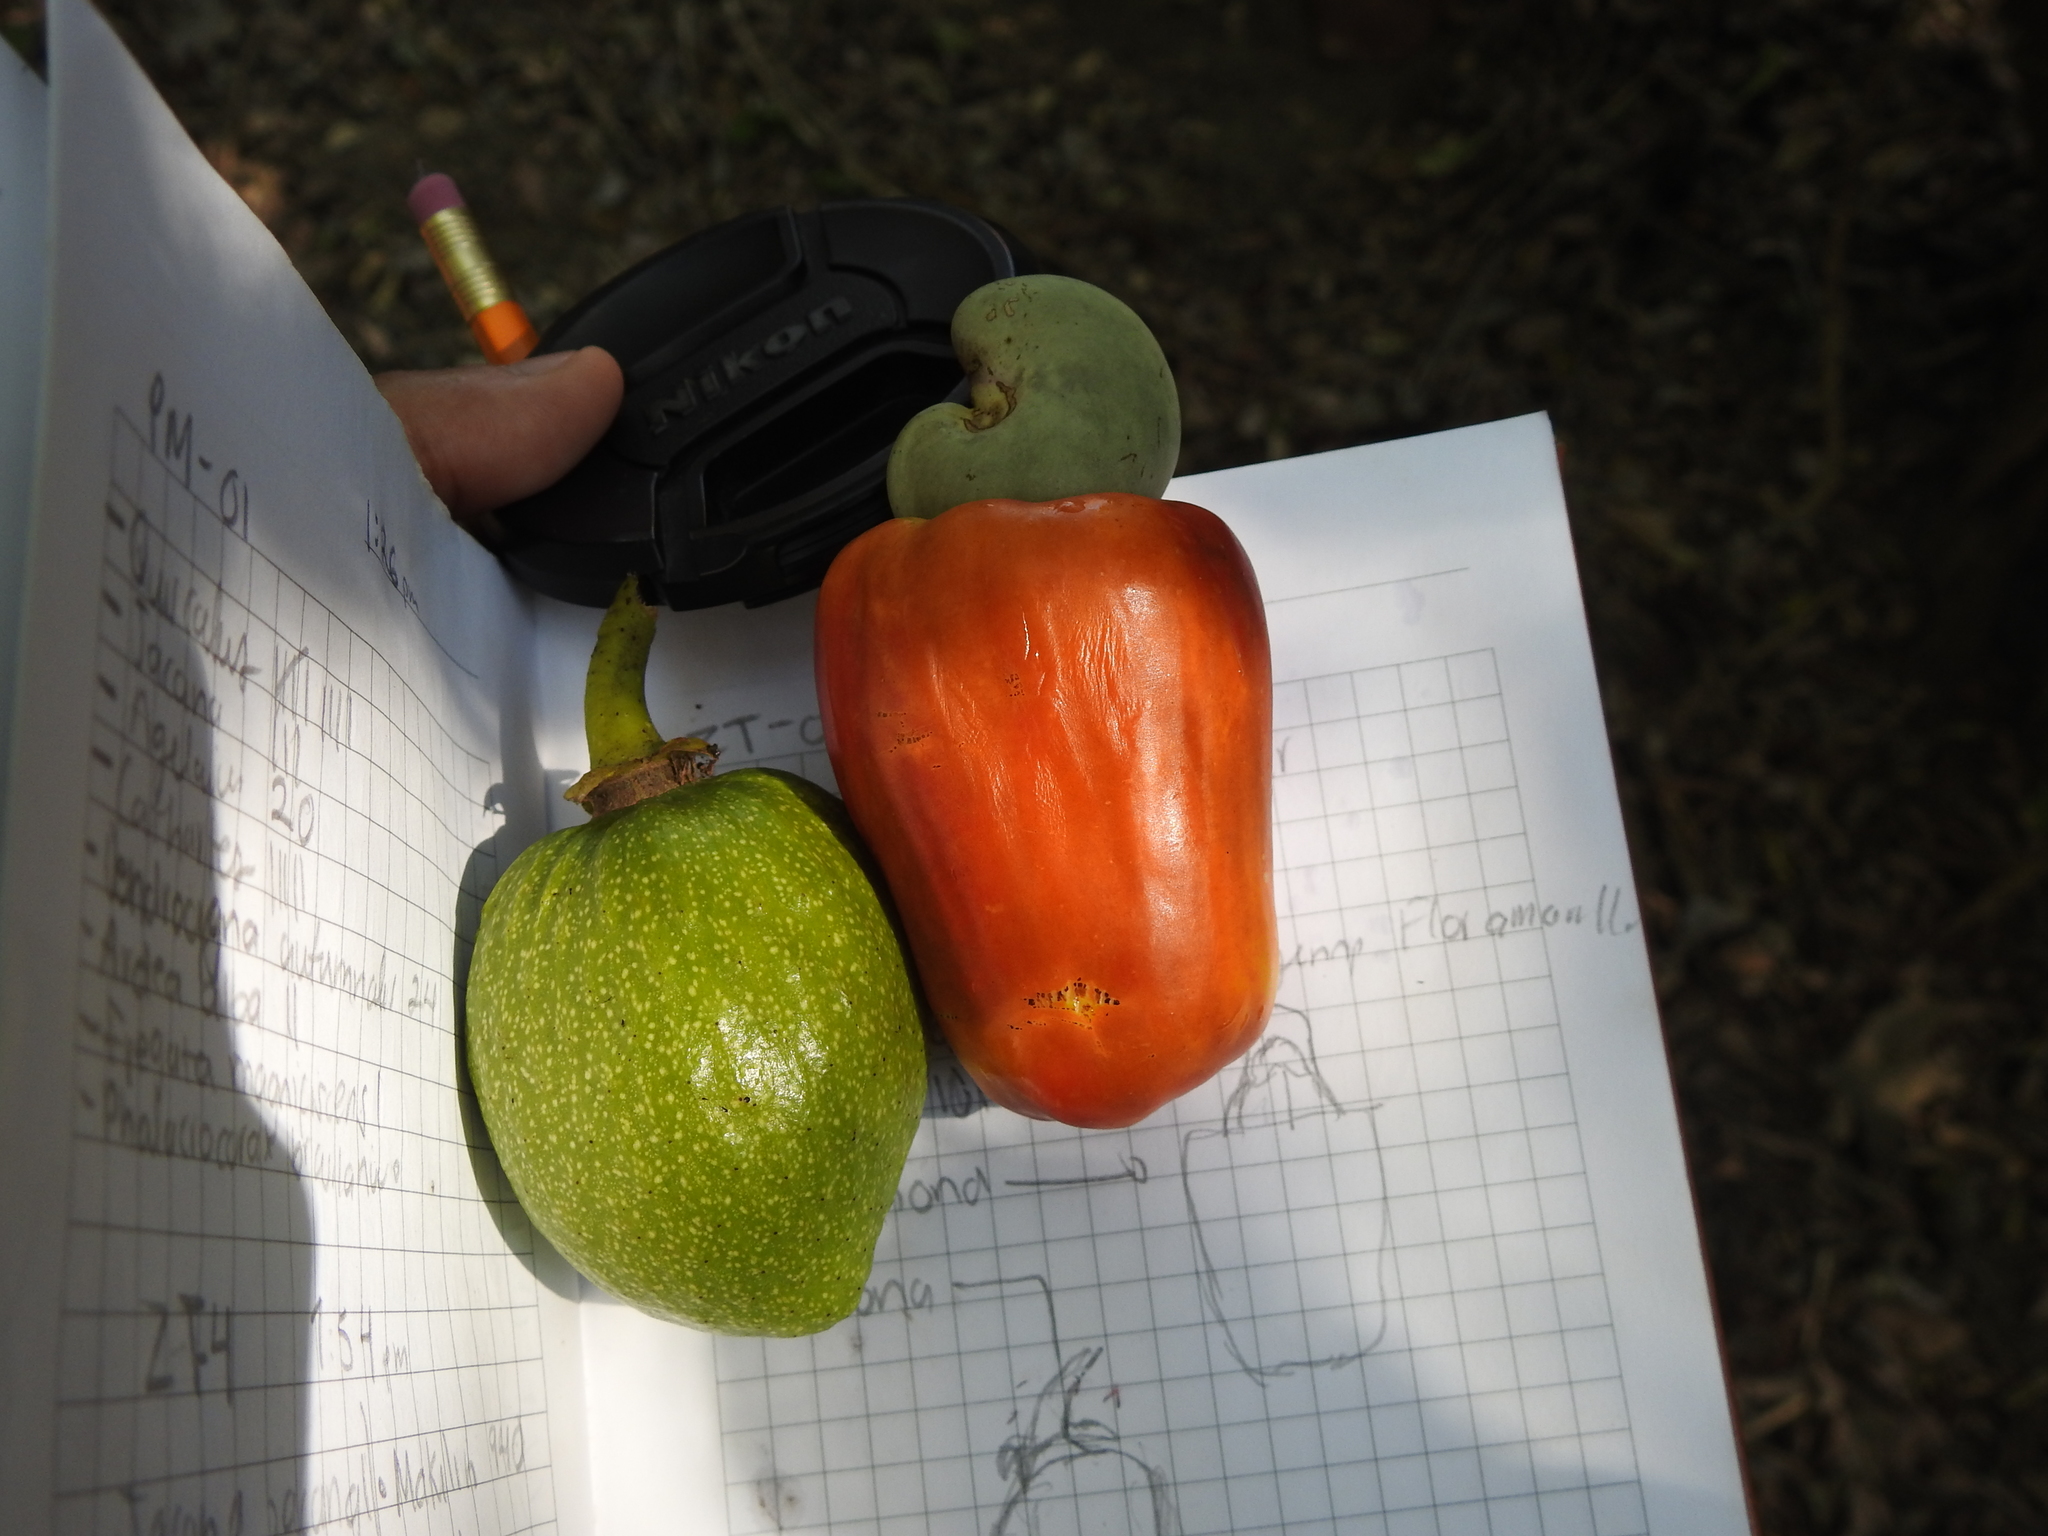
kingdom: Plantae
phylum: Tracheophyta
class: Magnoliopsida
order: Sapindales
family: Anacardiaceae
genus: Anacardium
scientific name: Anacardium occidentale
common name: Cashew
